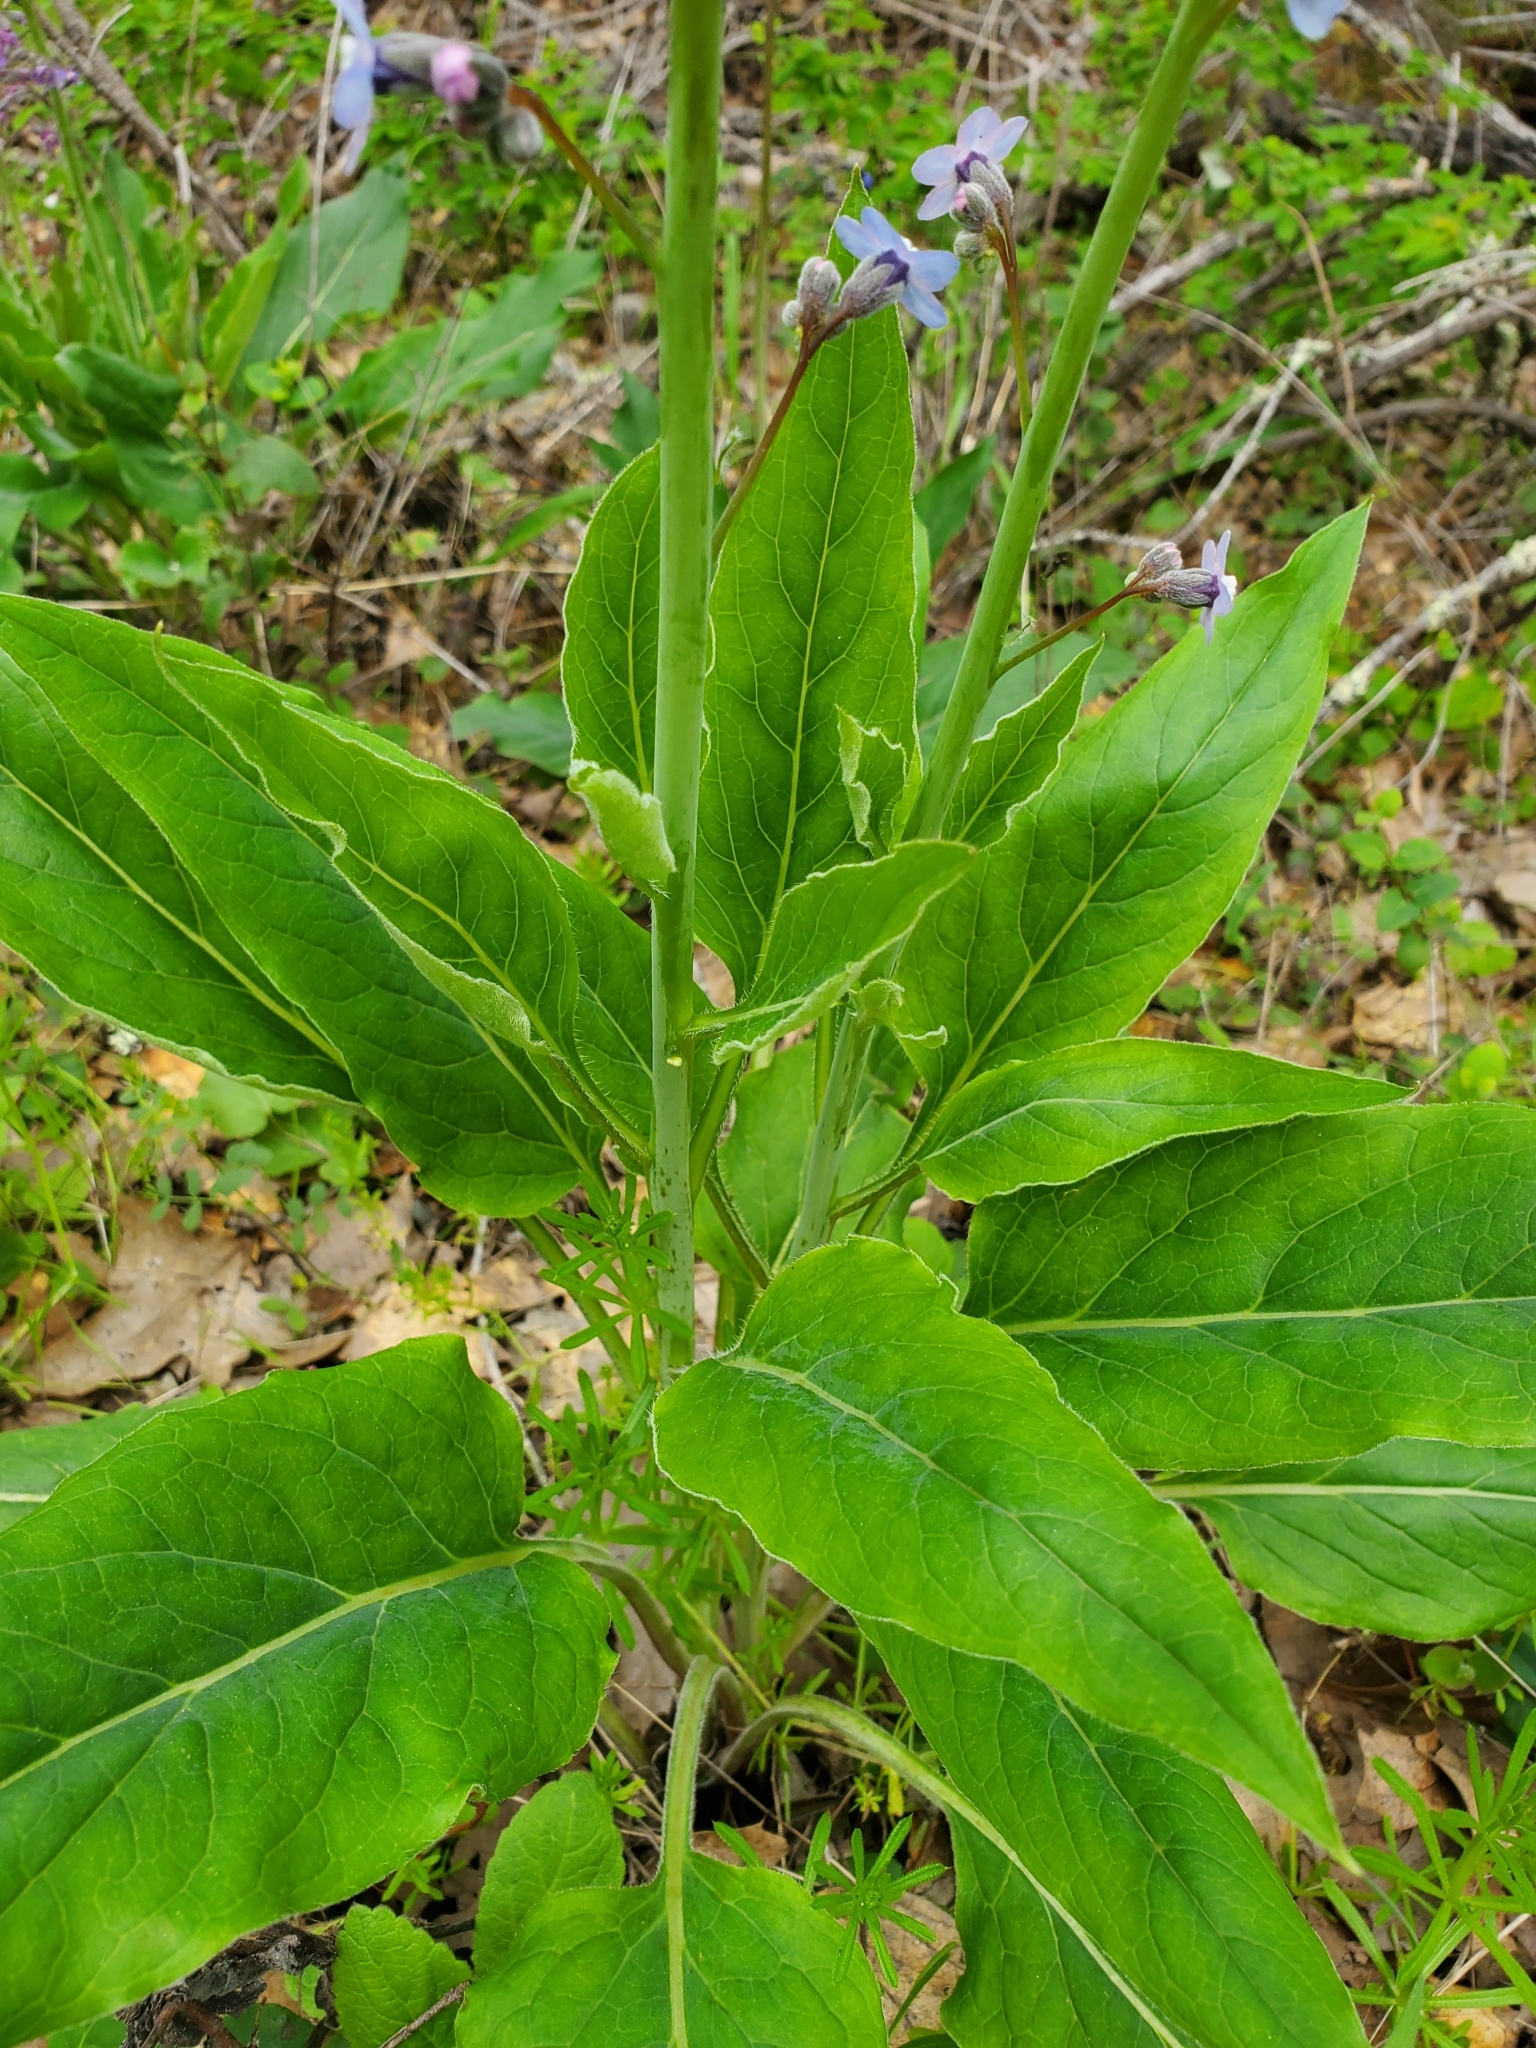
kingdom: Plantae
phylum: Tracheophyta
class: Magnoliopsida
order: Boraginales
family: Boraginaceae
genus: Adelinia
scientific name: Adelinia grande
